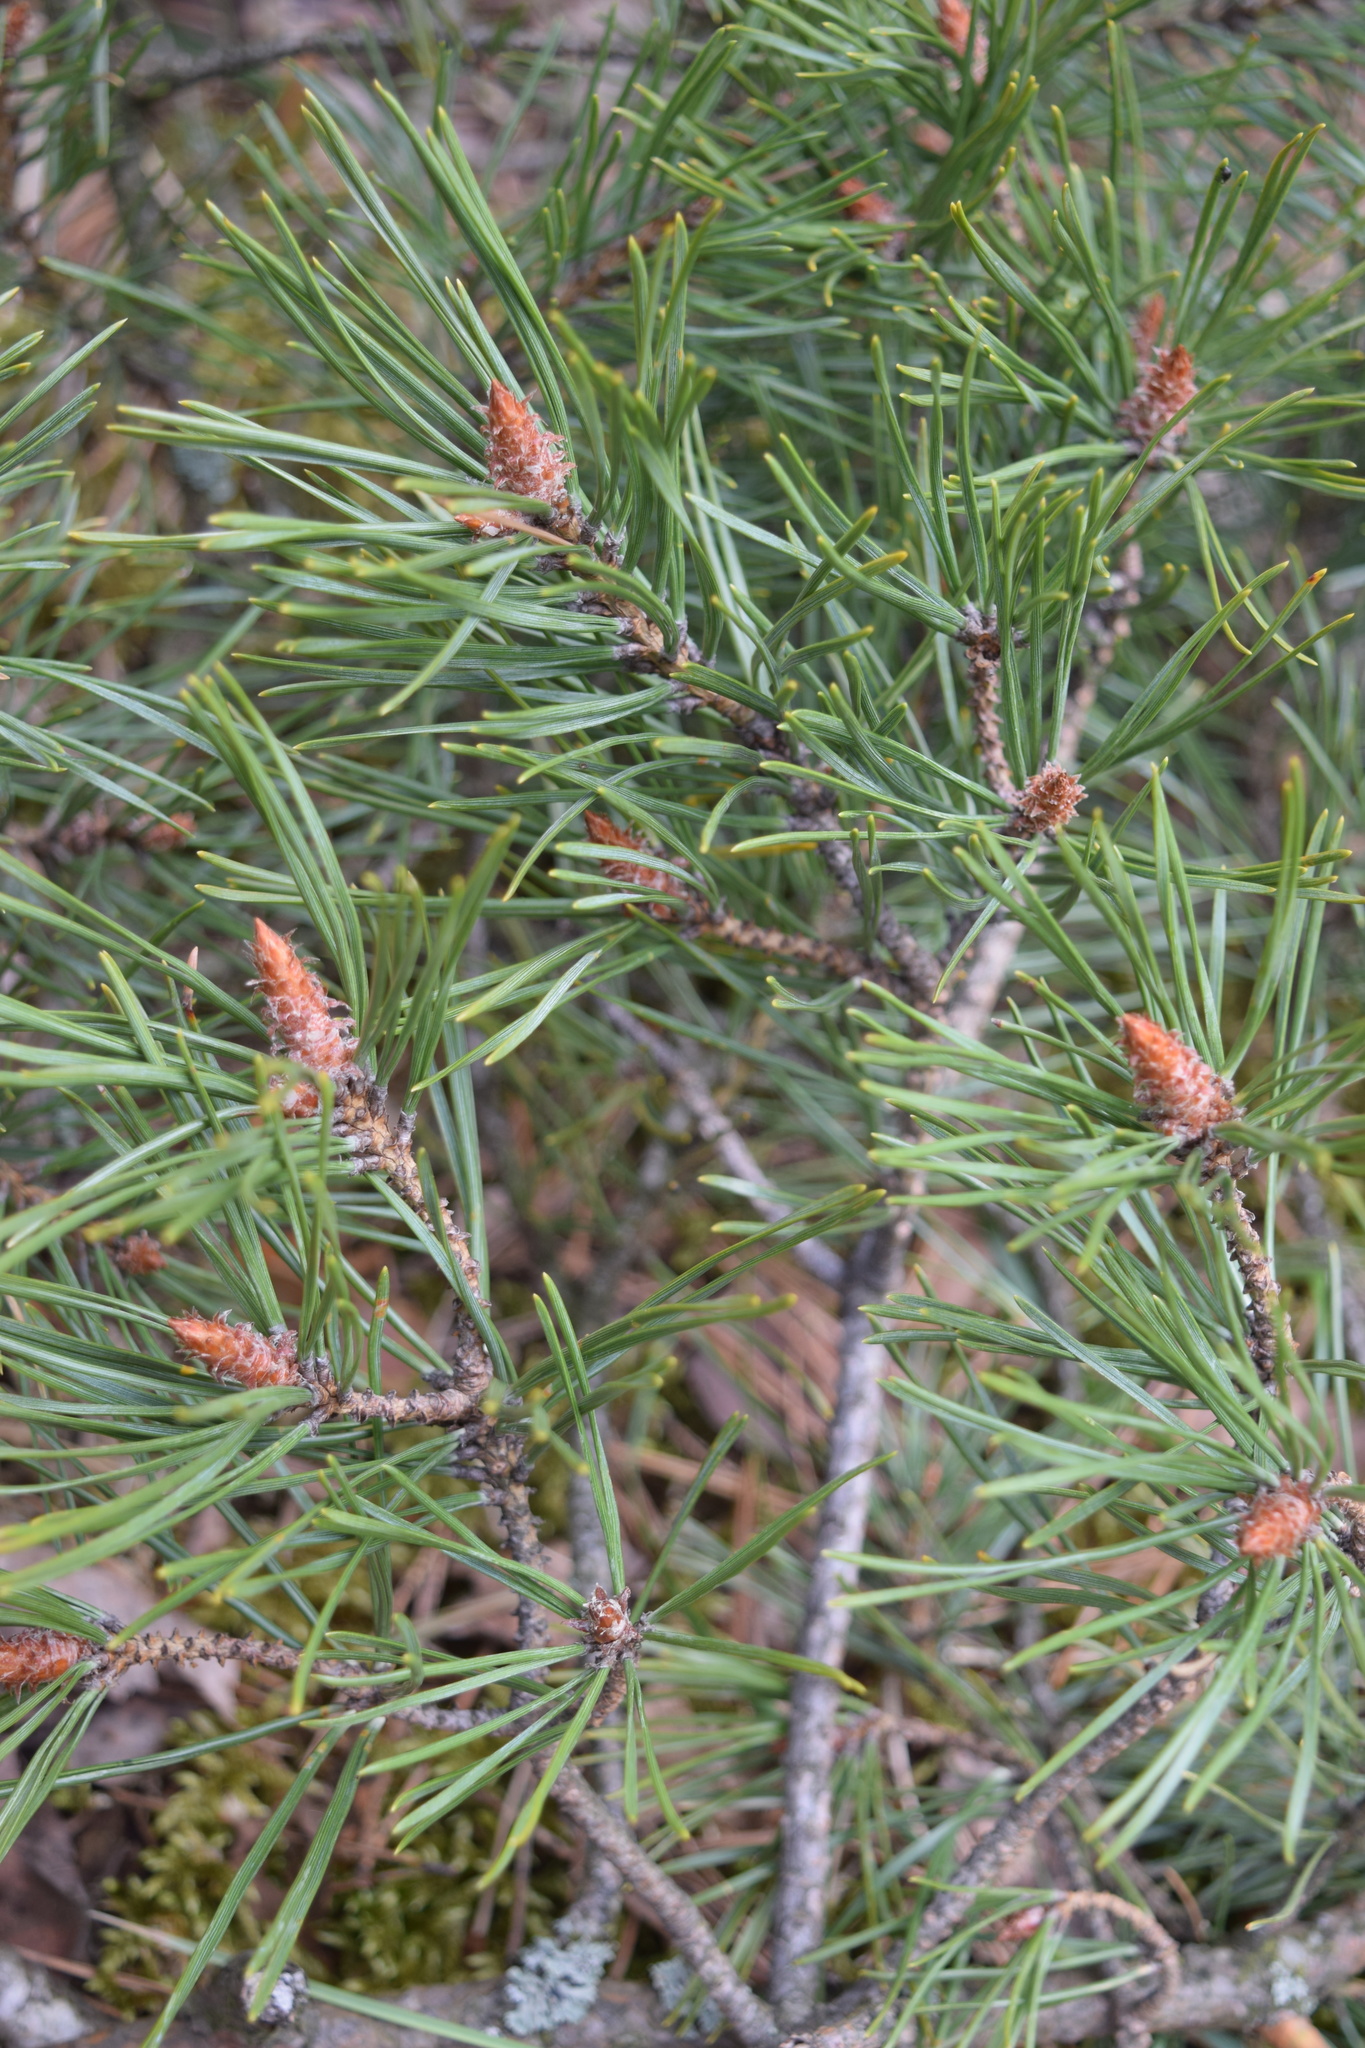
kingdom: Plantae
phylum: Tracheophyta
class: Pinopsida
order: Pinales
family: Pinaceae
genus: Pinus
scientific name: Pinus sylvestris
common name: Scots pine
